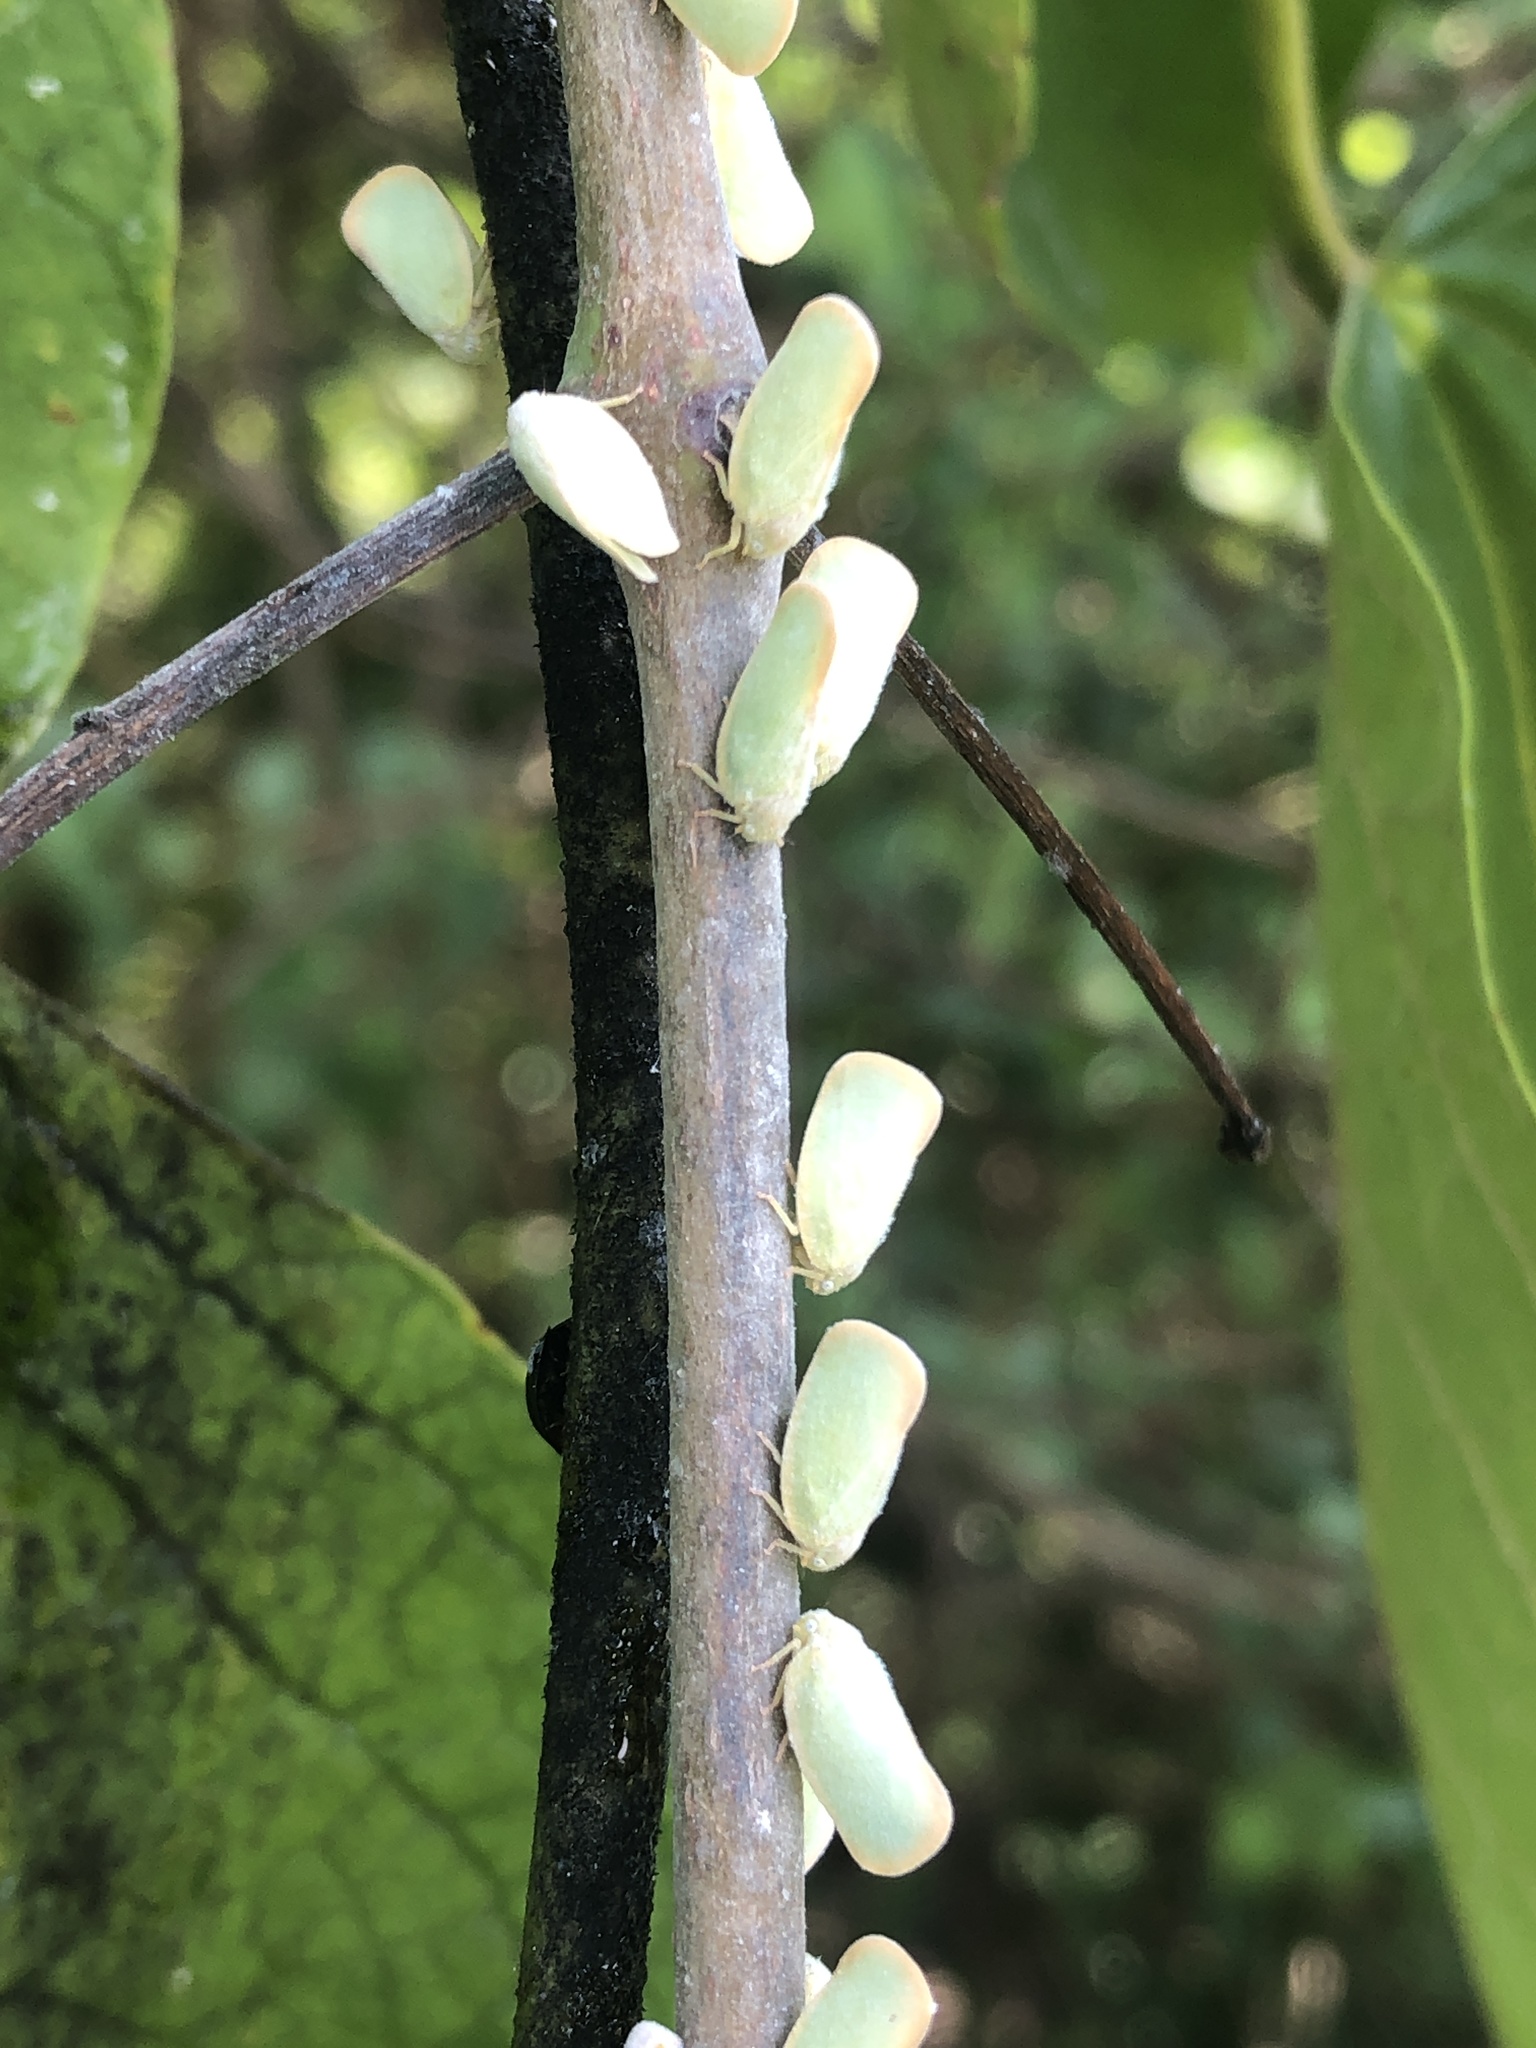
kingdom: Animalia
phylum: Arthropoda
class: Insecta
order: Hemiptera
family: Flatidae
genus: Ormenoides
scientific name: Ormenoides venusta
